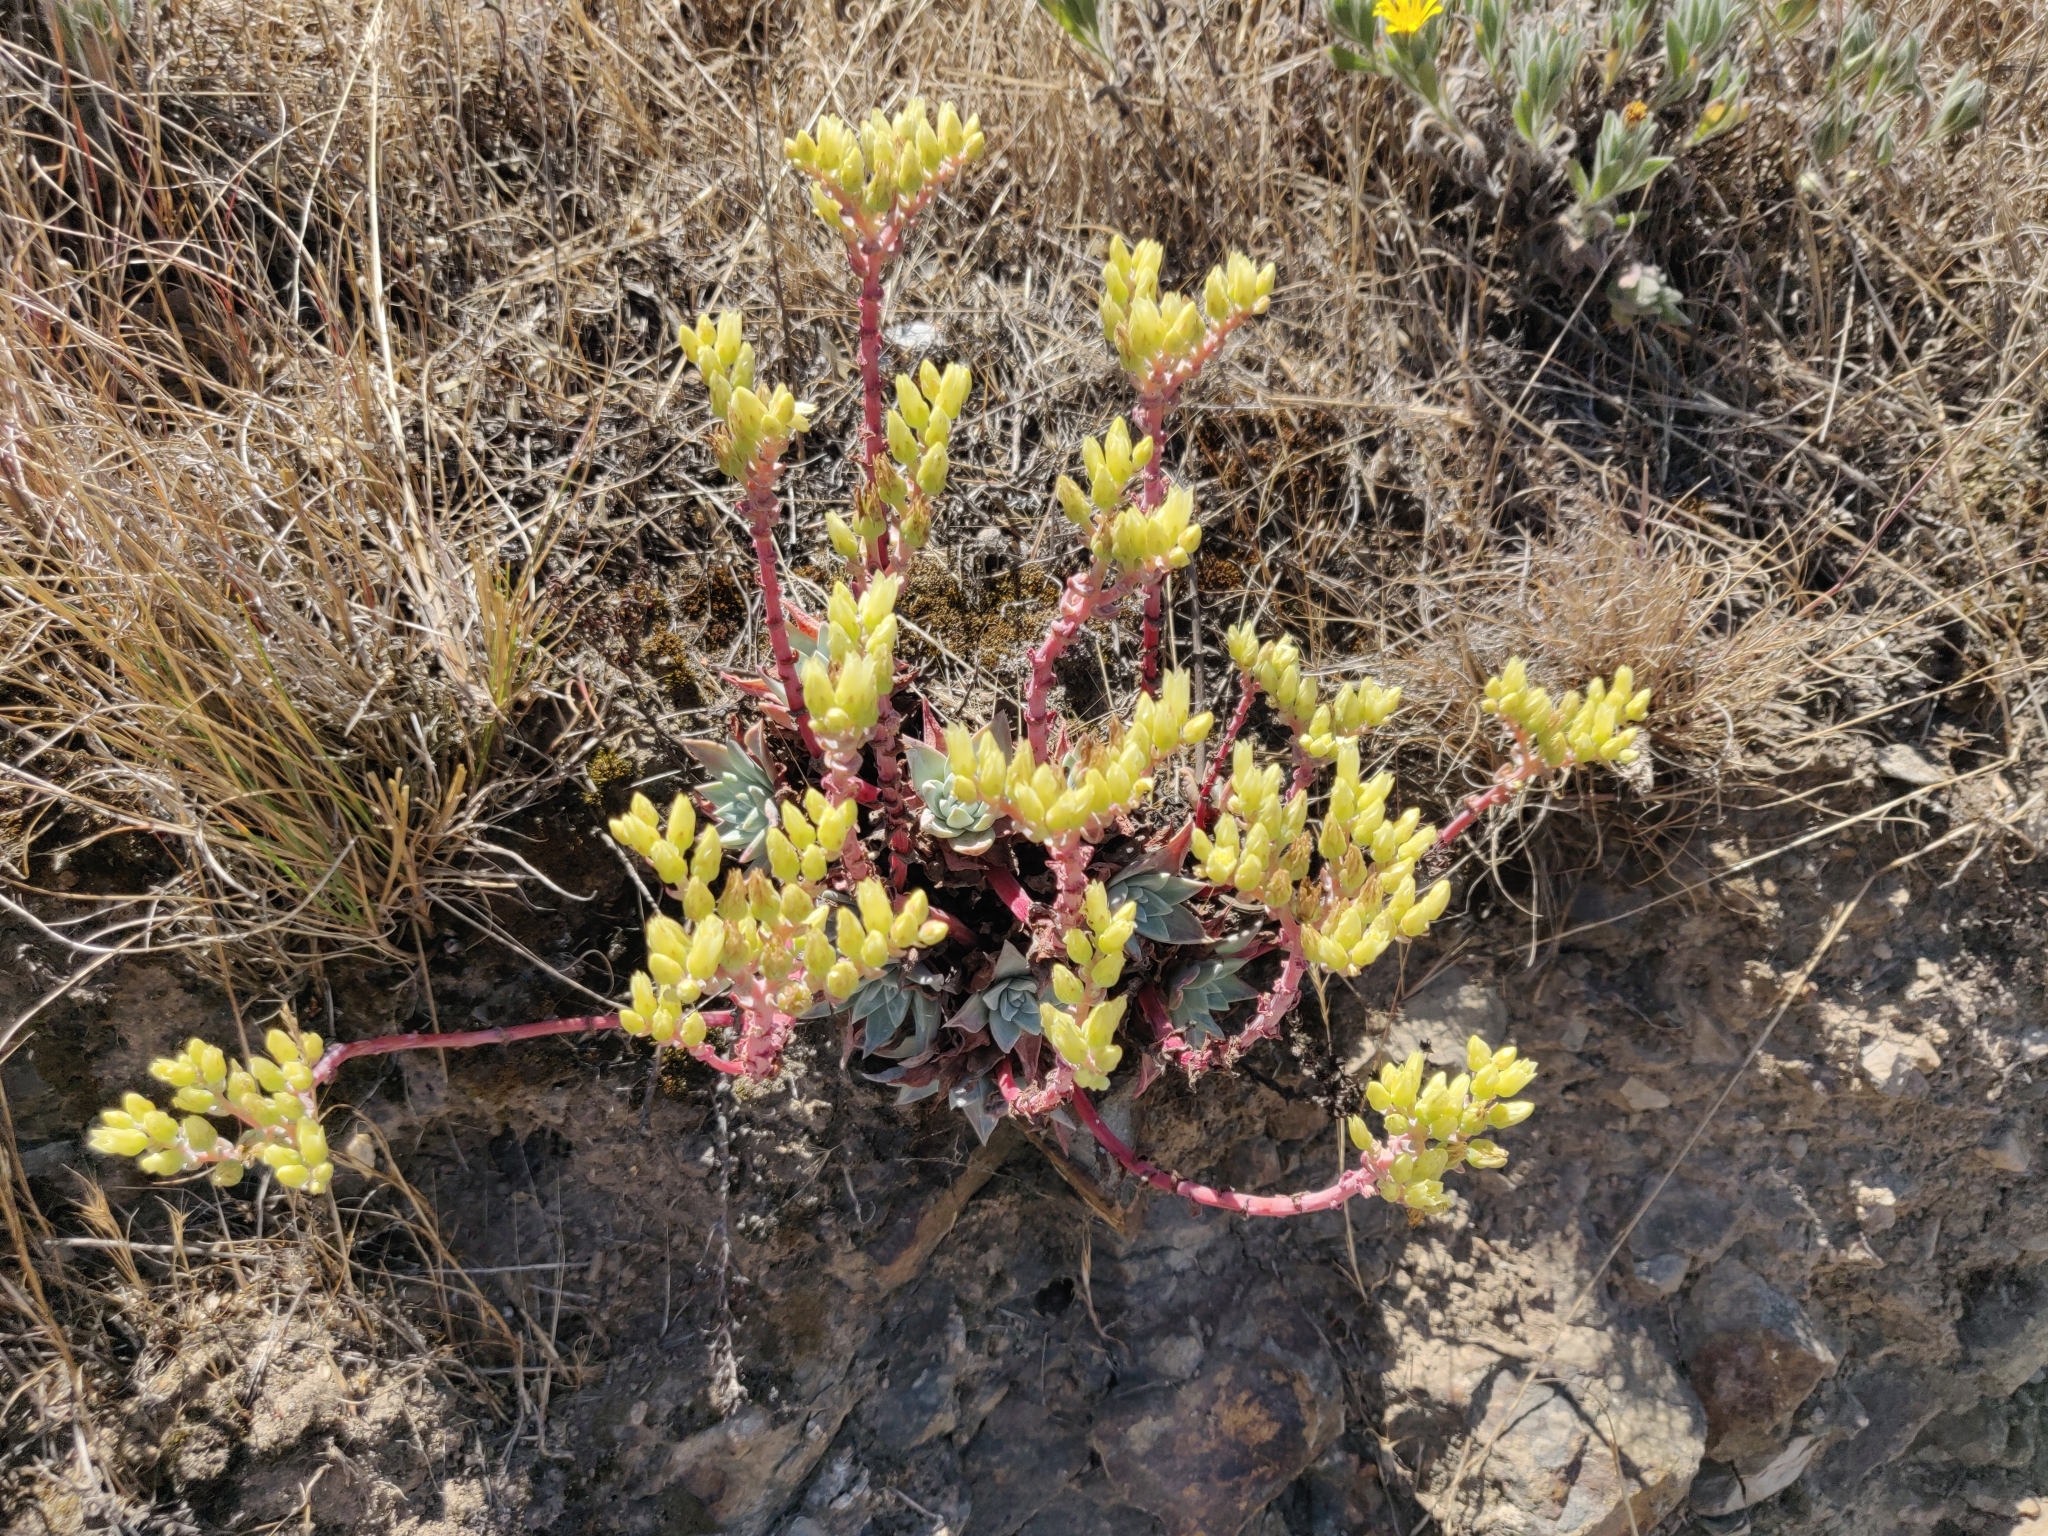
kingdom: Plantae
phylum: Tracheophyta
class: Magnoliopsida
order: Saxifragales
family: Crassulaceae
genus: Dudleya
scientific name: Dudleya farinosa
